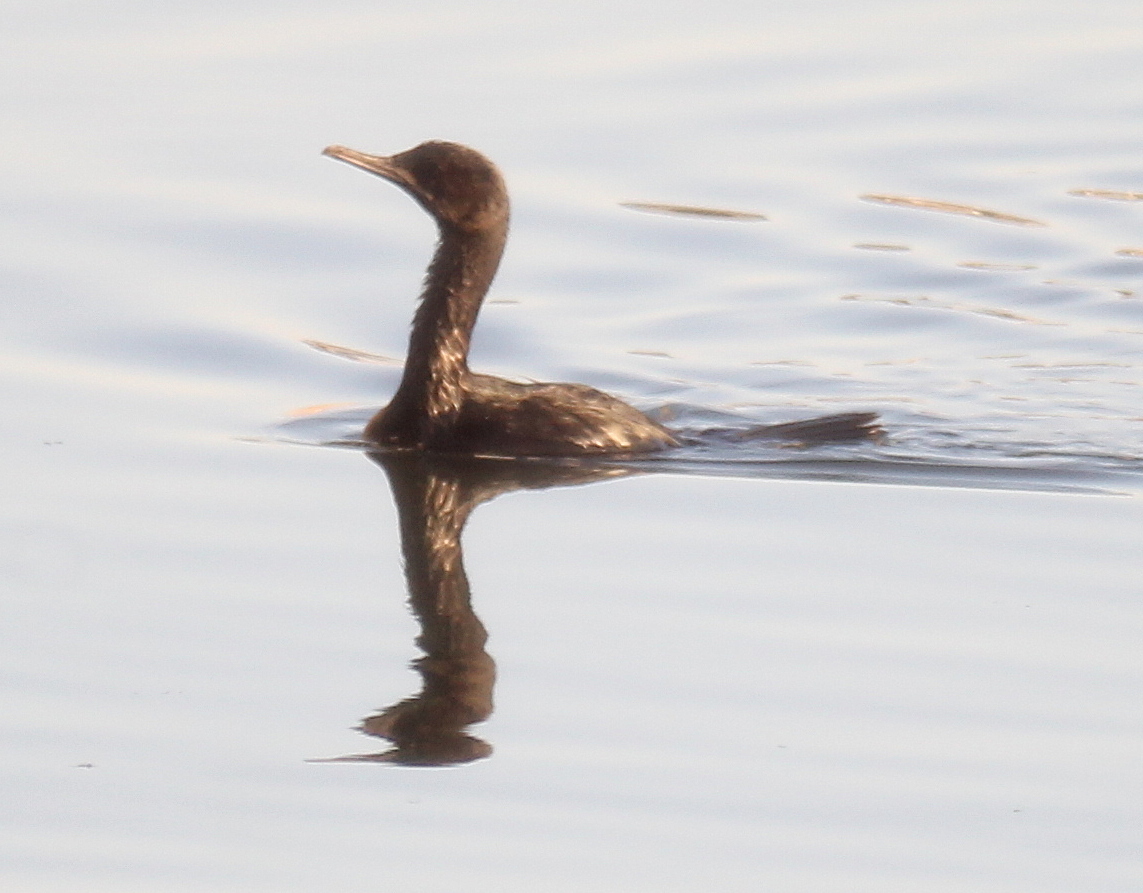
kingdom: Animalia
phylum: Chordata
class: Aves
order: Suliformes
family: Phalacrocoracidae
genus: Phalacrocorax
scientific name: Phalacrocorax brasilianus
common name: Neotropic cormorant
